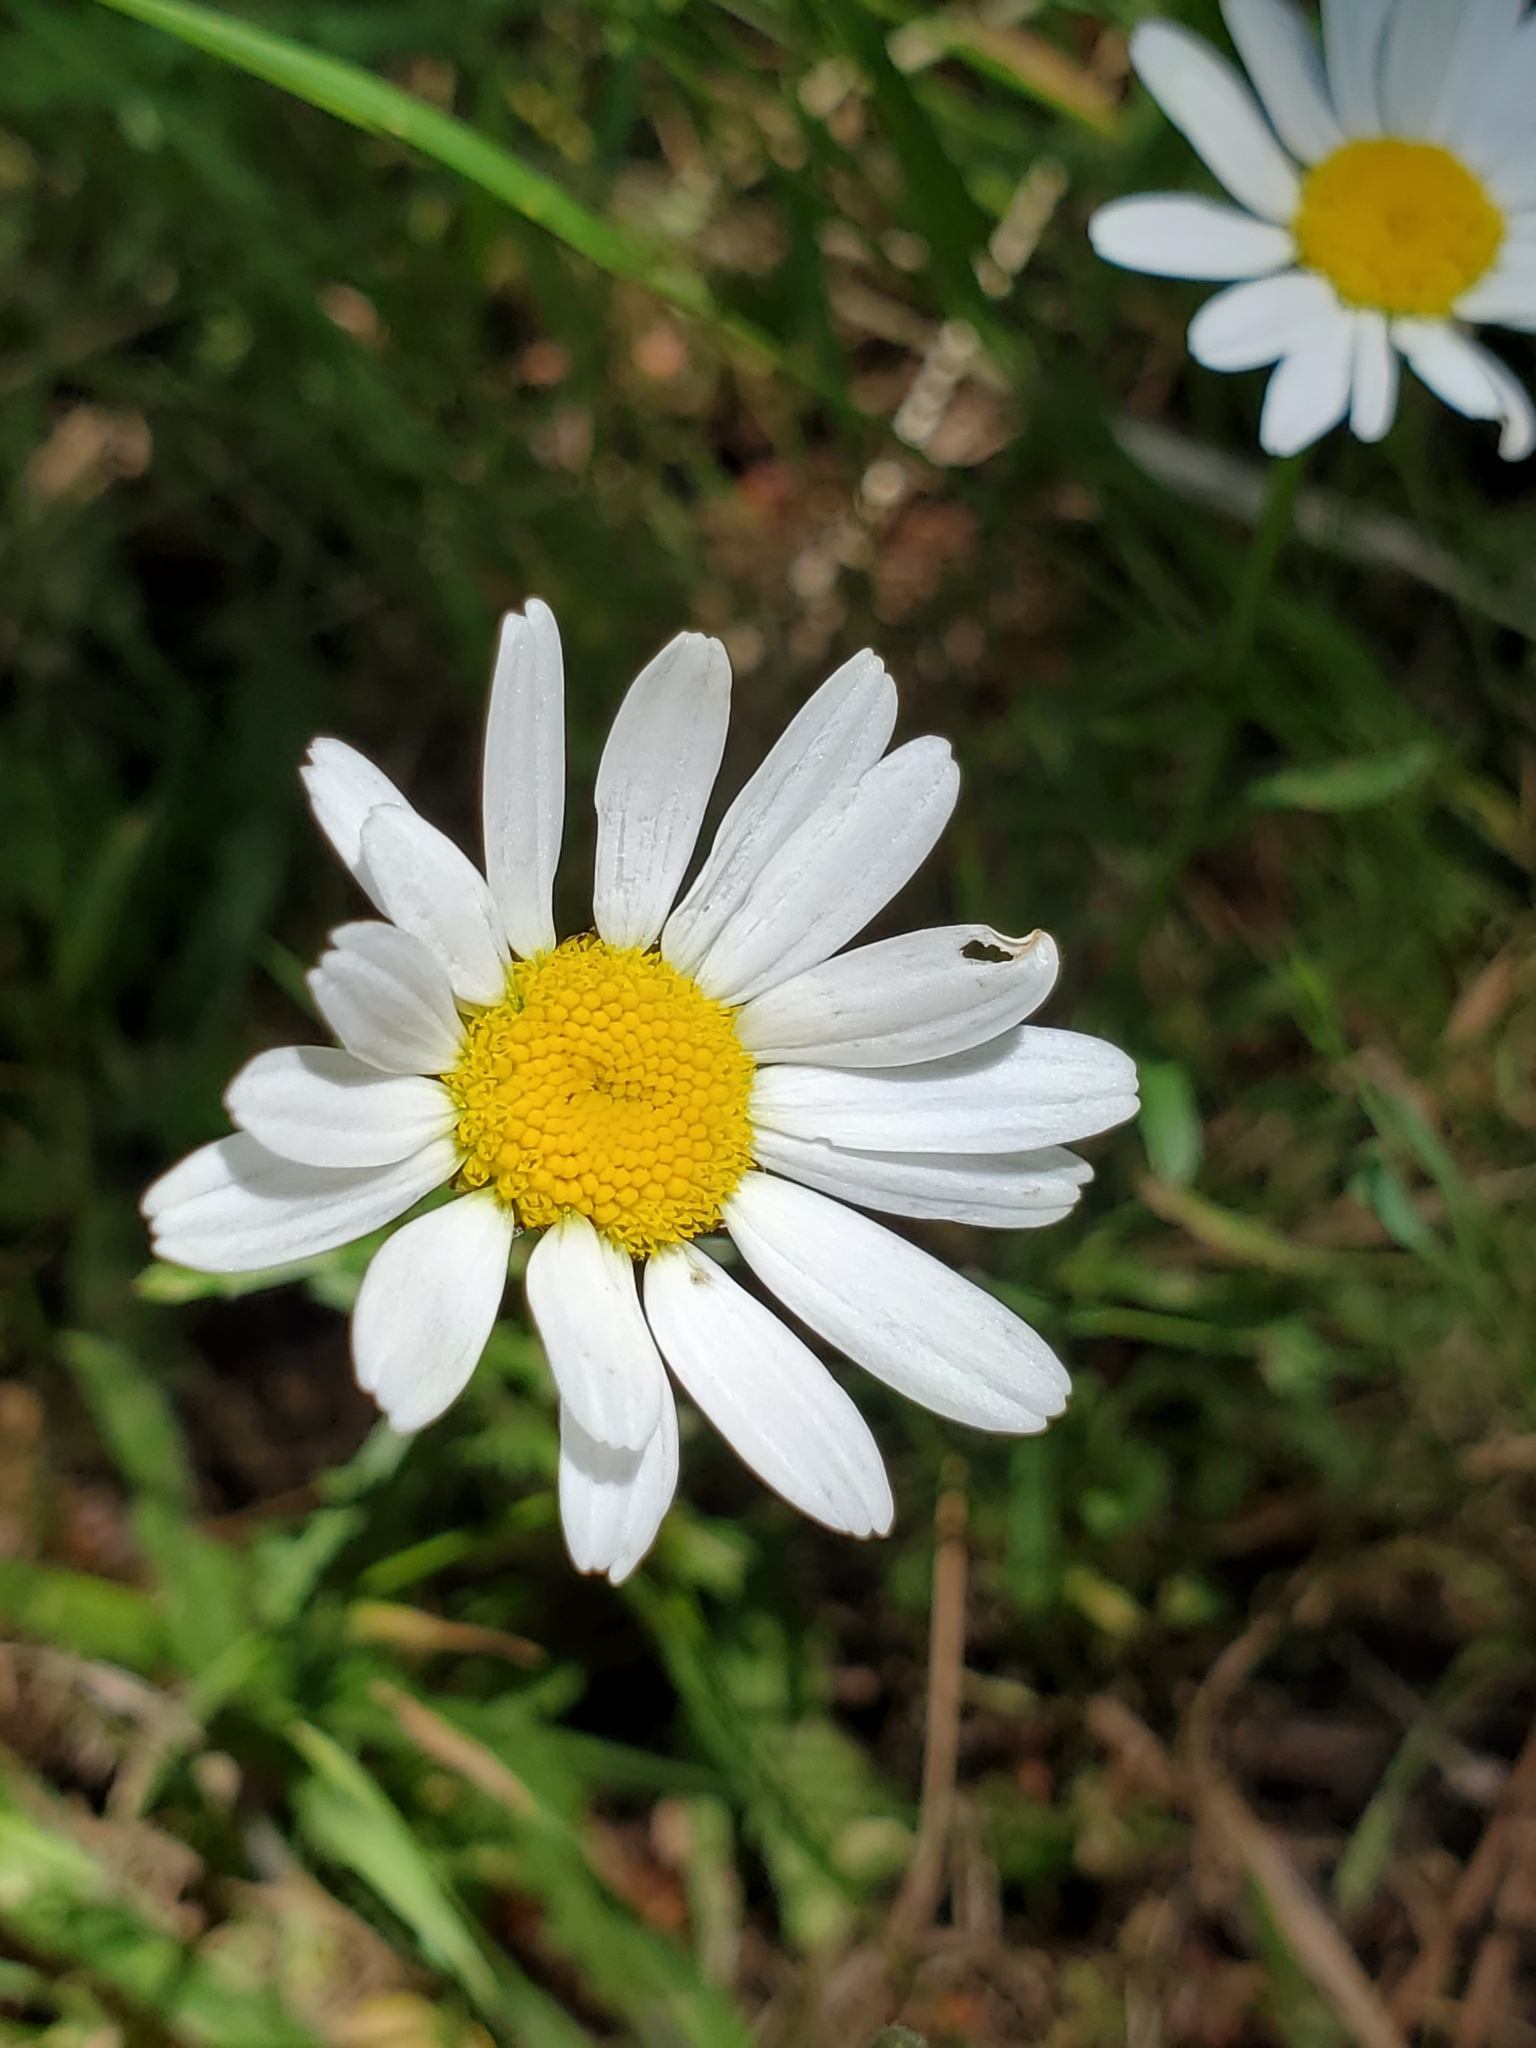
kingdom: Plantae
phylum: Tracheophyta
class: Magnoliopsida
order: Asterales
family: Asteraceae
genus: Leucanthemum
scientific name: Leucanthemum vulgare
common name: Oxeye daisy
